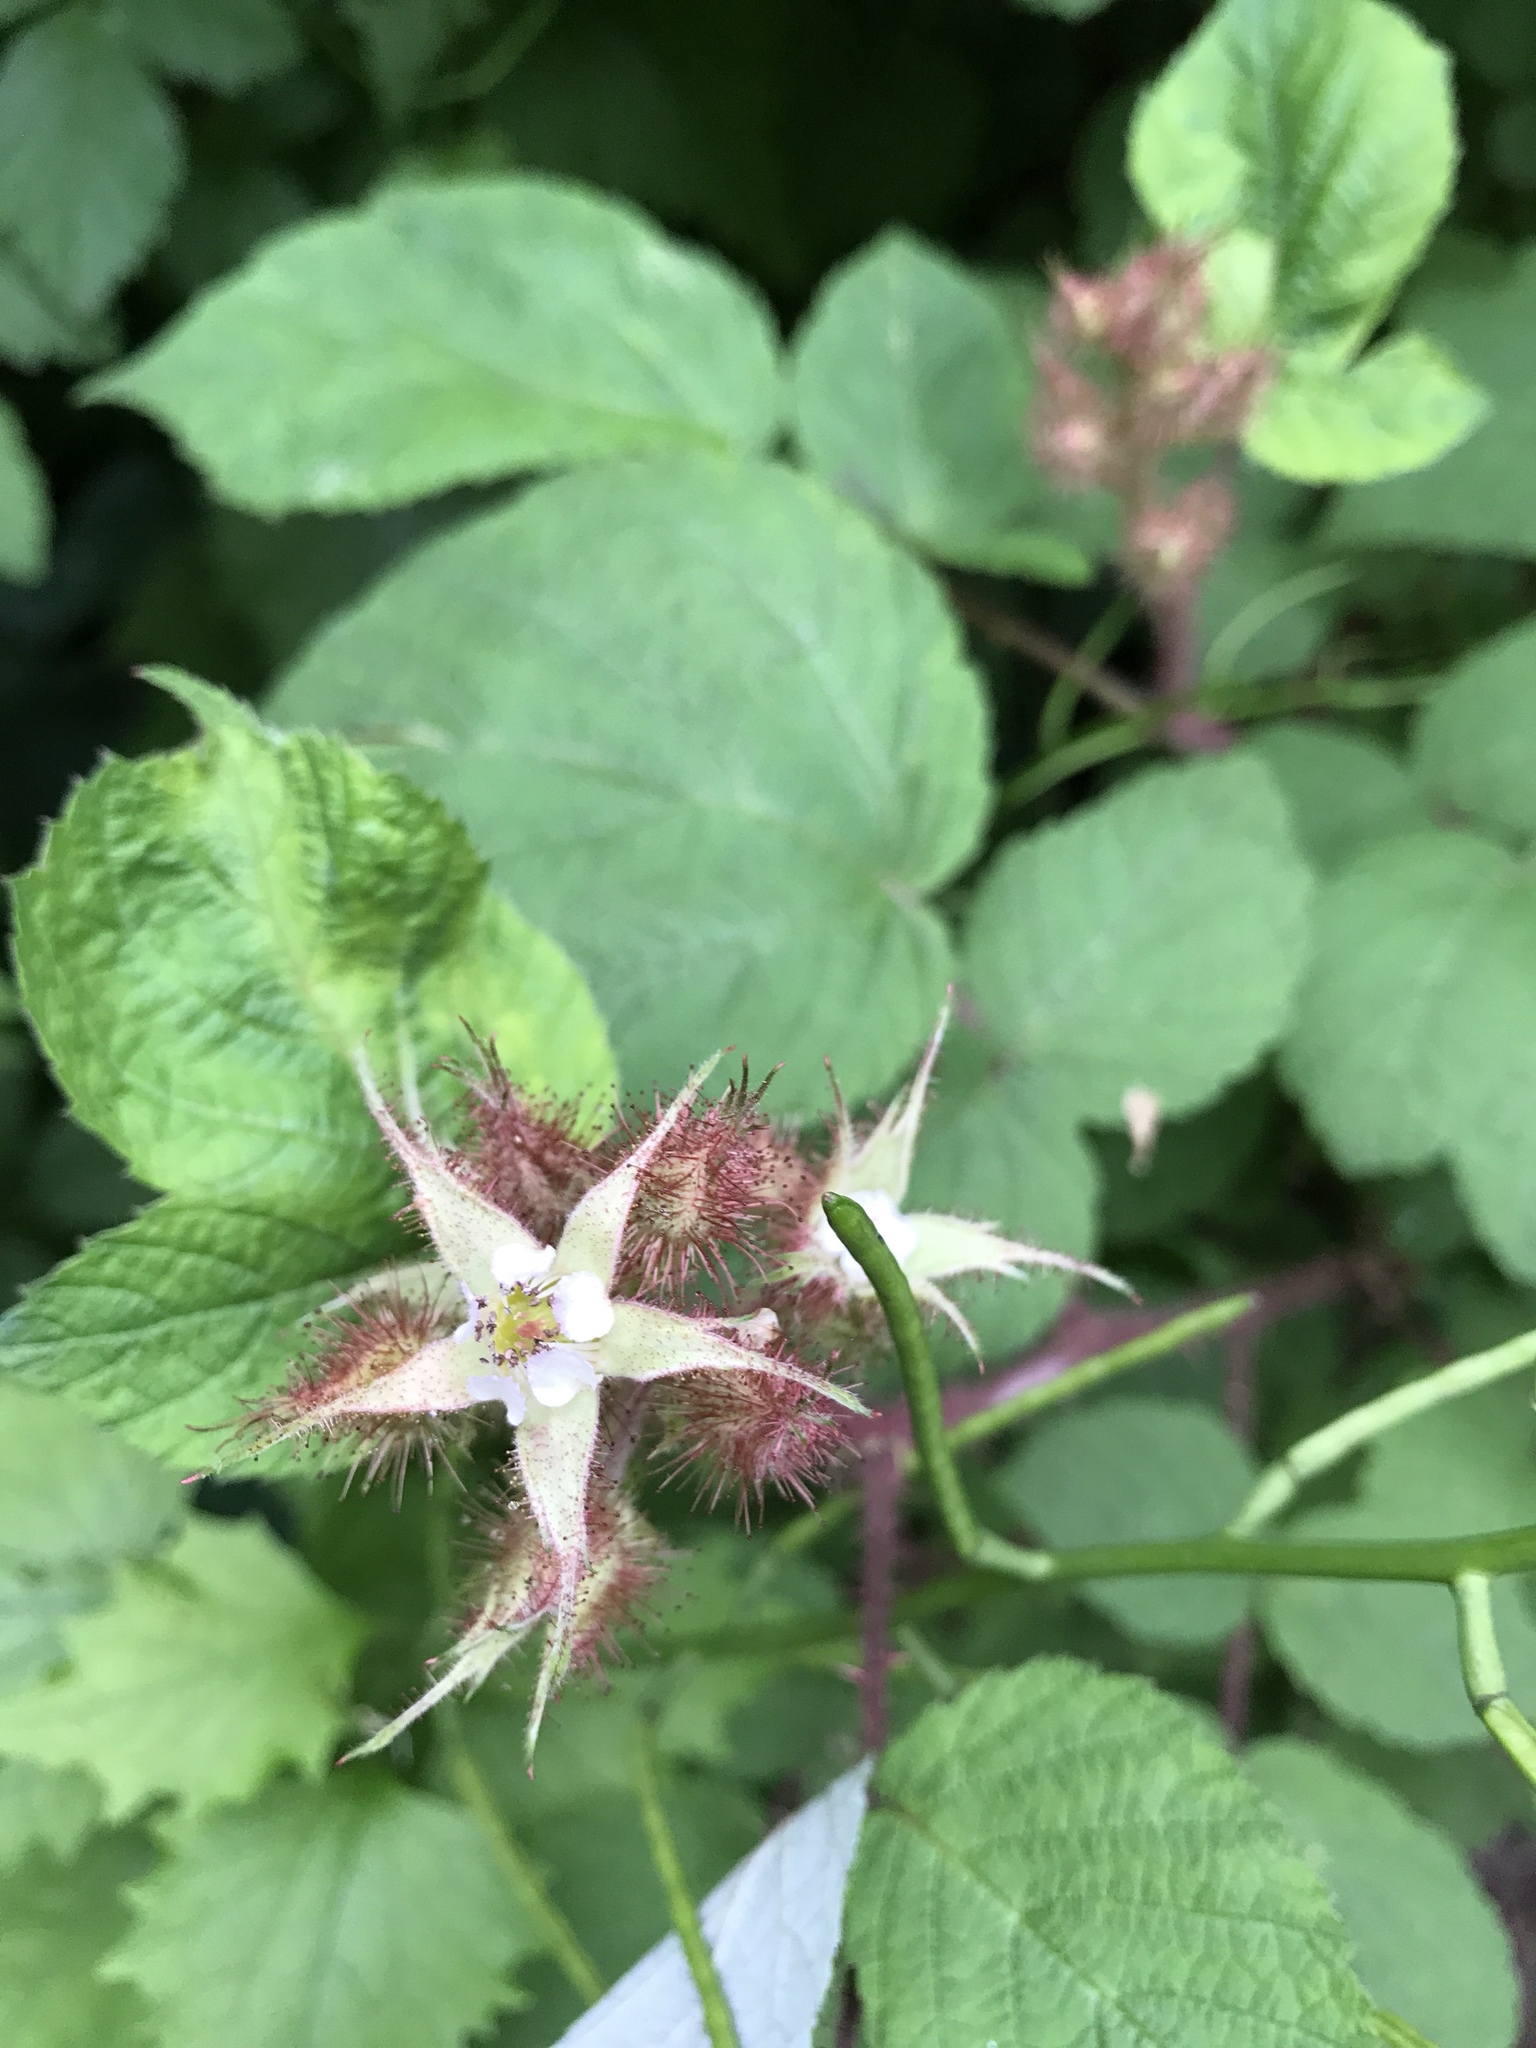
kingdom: Plantae
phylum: Tracheophyta
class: Magnoliopsida
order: Rosales
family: Rosaceae
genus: Rubus
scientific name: Rubus phoenicolasius
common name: Japanese wineberry
